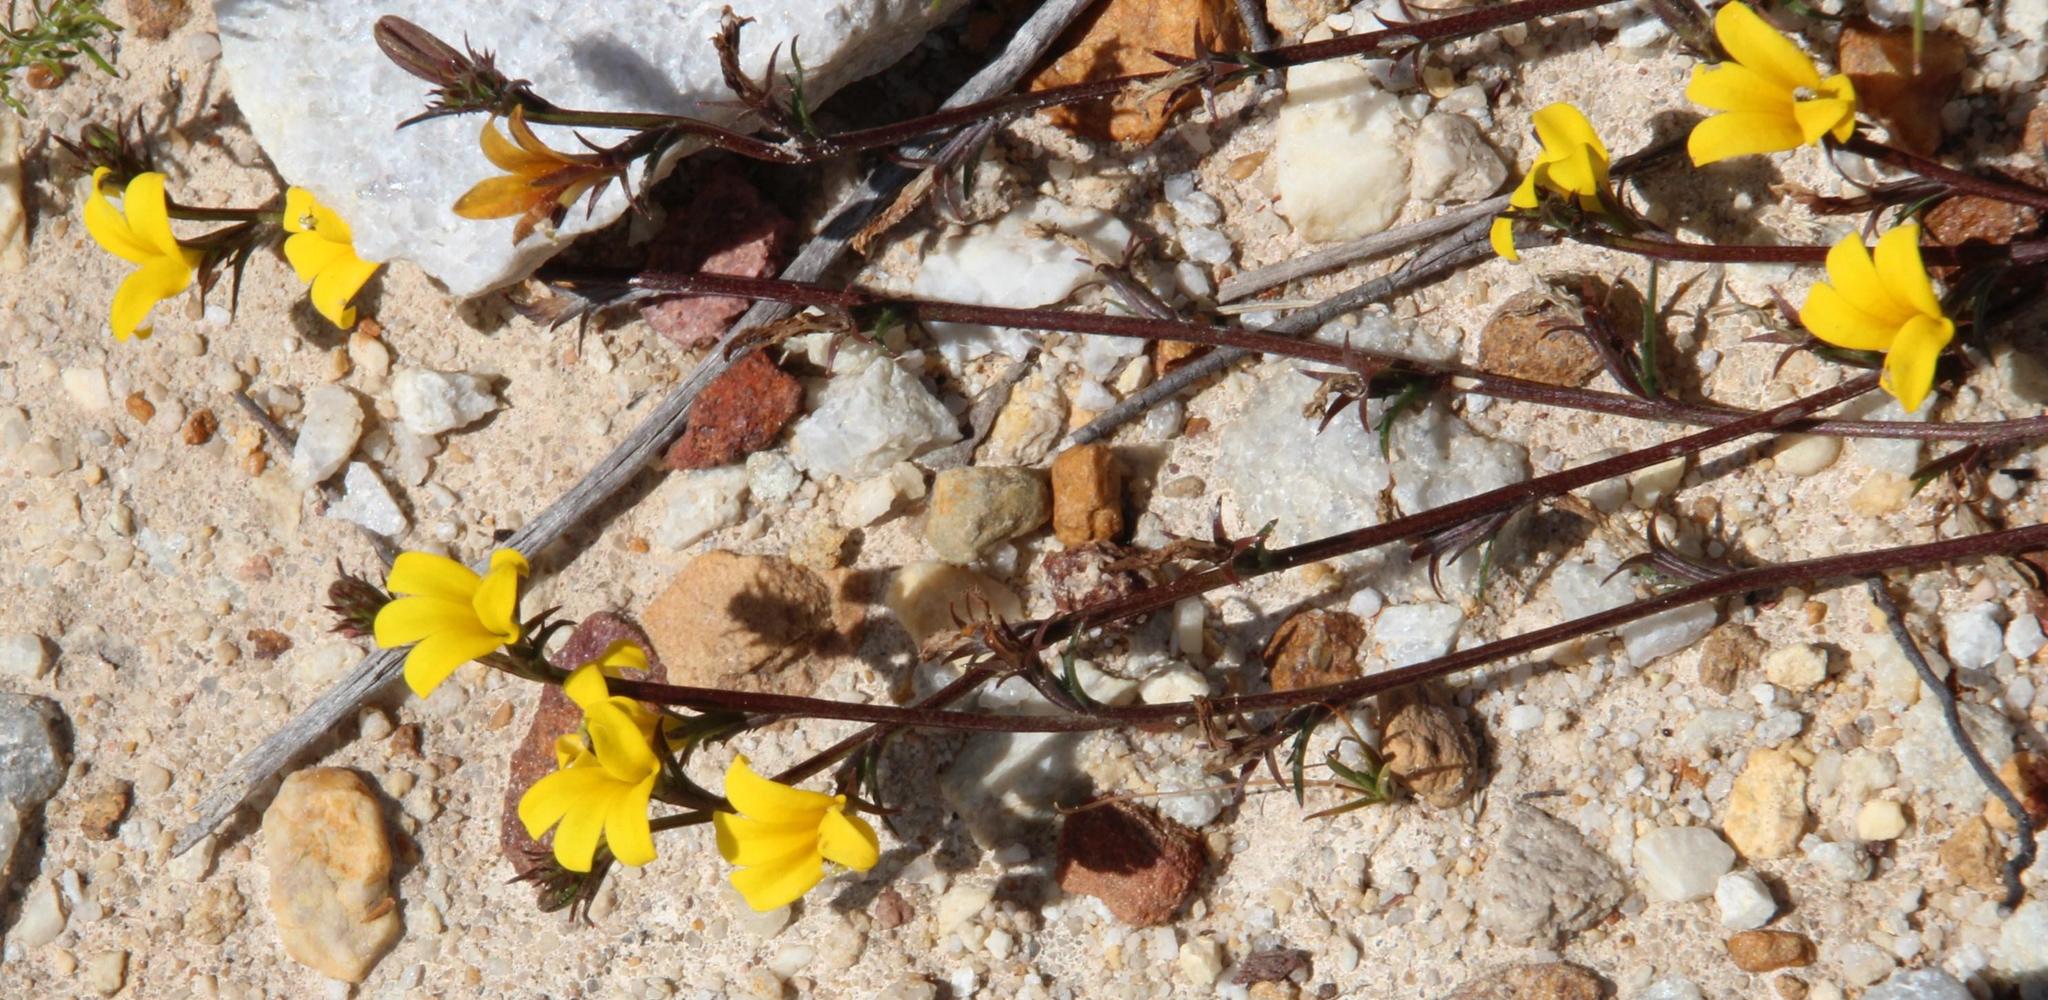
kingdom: Plantae
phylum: Tracheophyta
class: Magnoliopsida
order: Asterales
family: Campanulaceae
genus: Monopsis
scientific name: Monopsis lutea
